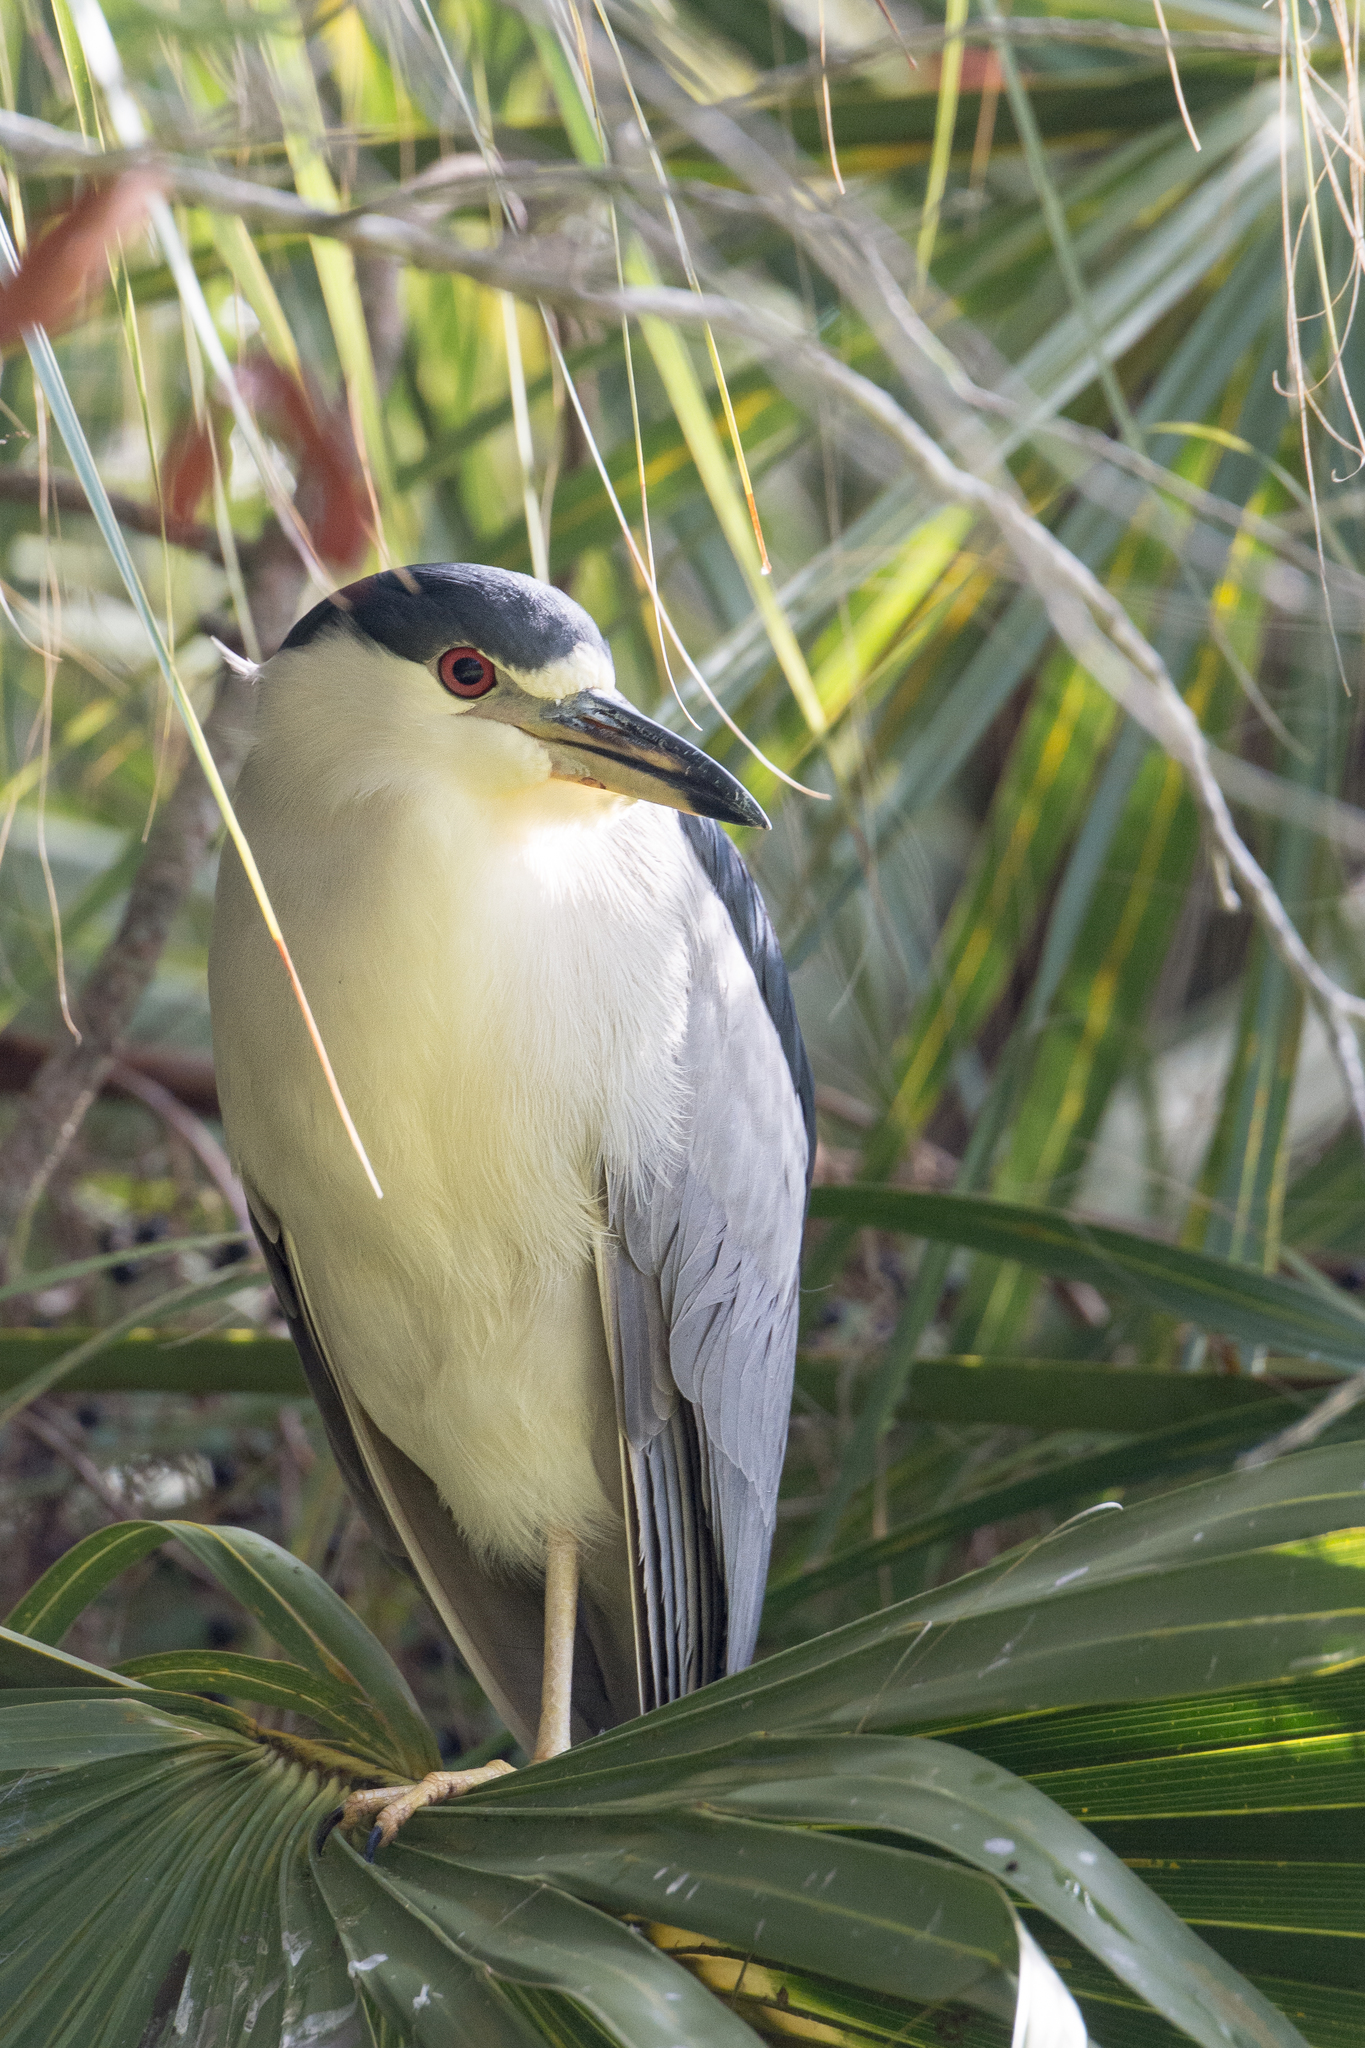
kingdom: Animalia
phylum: Chordata
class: Aves
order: Pelecaniformes
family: Ardeidae
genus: Nycticorax
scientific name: Nycticorax nycticorax
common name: Black-crowned night heron
